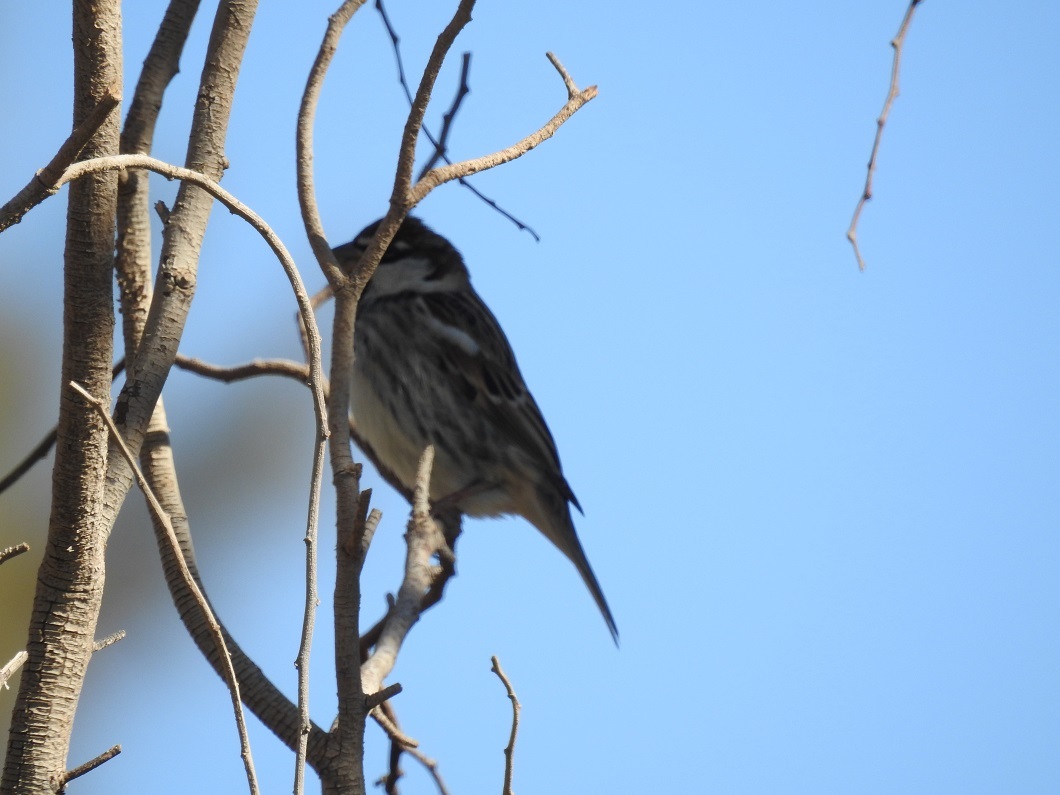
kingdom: Animalia
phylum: Chordata
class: Aves
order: Passeriformes
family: Passeridae
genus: Passer
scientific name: Passer hispaniolensis
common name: Spanish sparrow
